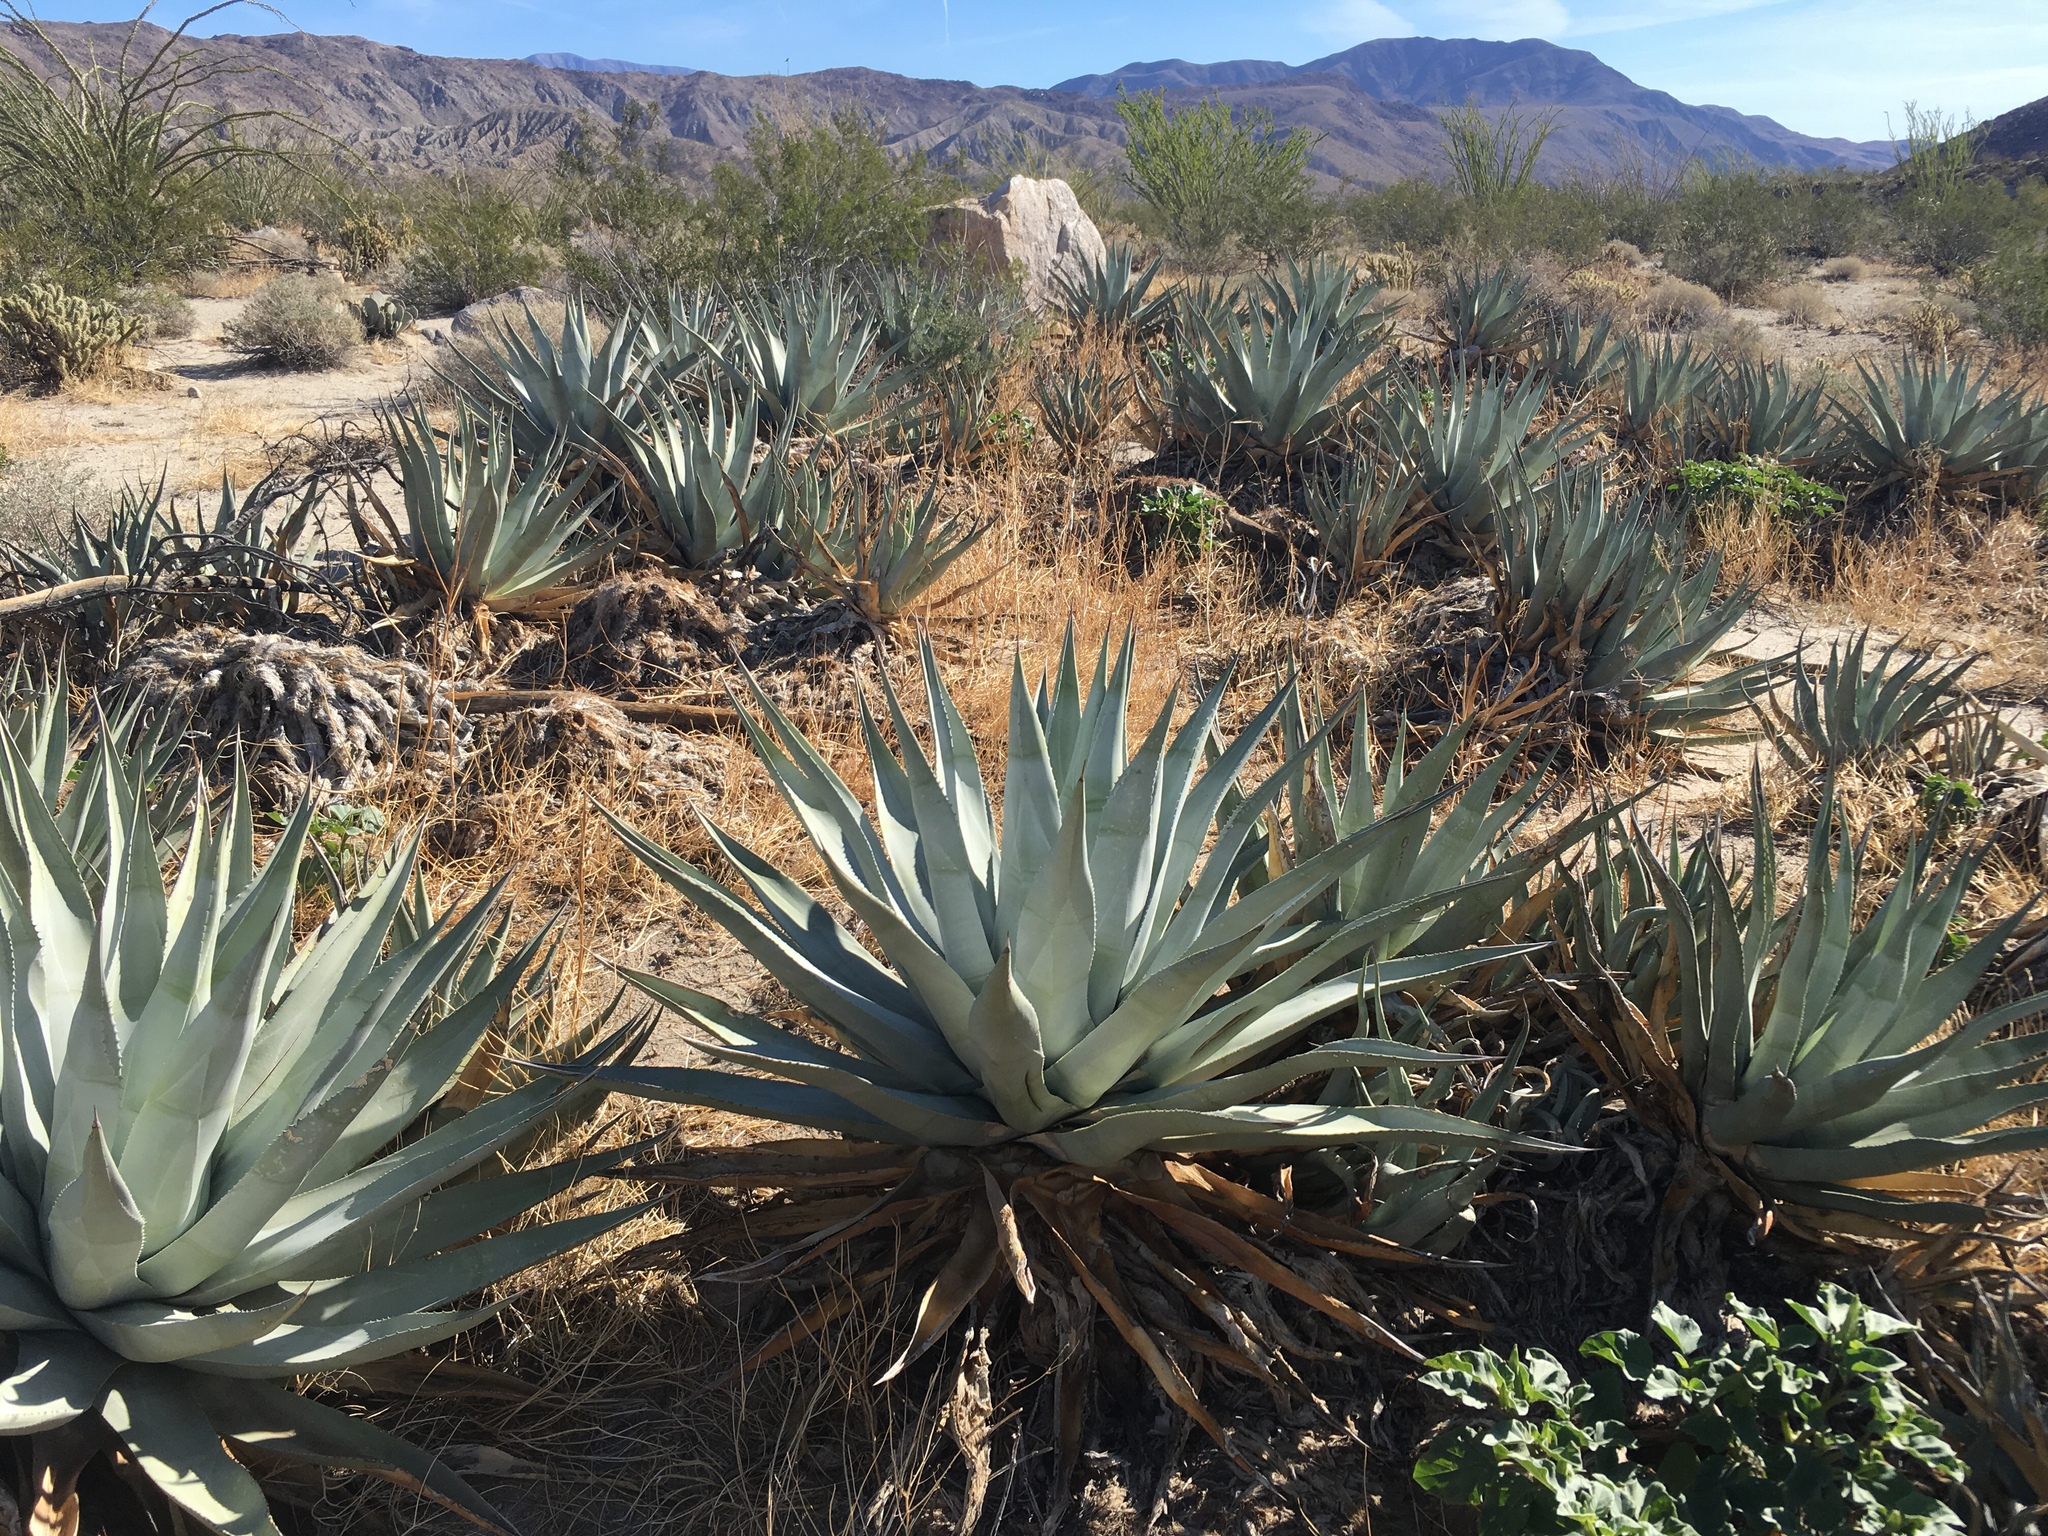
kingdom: Plantae
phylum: Tracheophyta
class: Liliopsida
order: Asparagales
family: Asparagaceae
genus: Agave
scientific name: Agave deserti
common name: Desert agave
